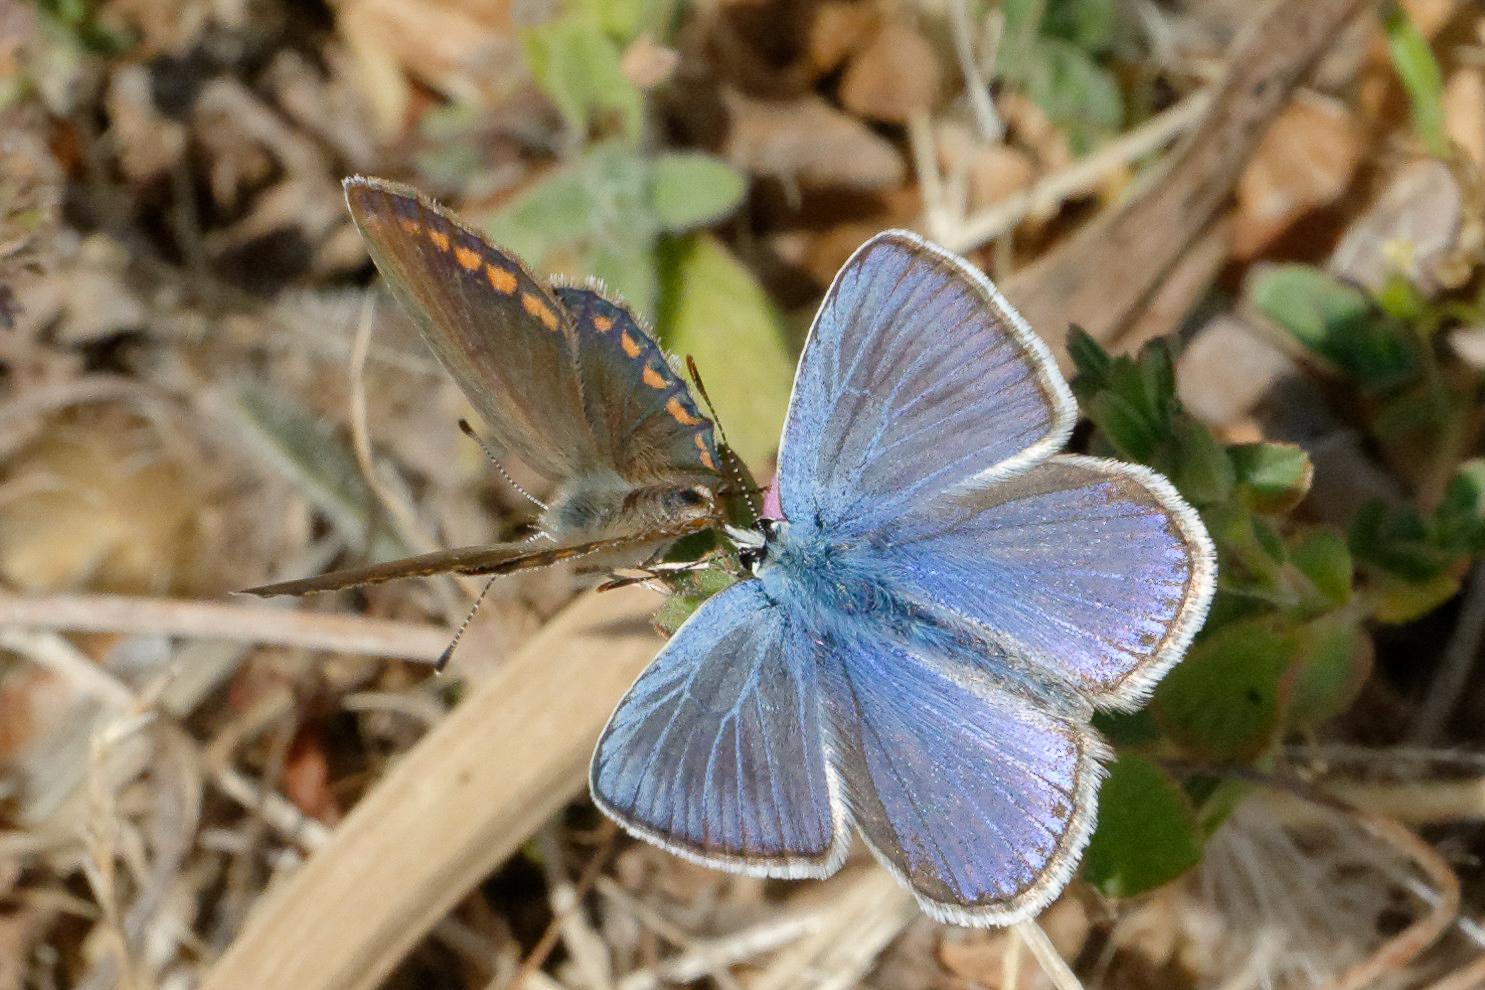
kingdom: Animalia
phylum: Arthropoda
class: Insecta
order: Lepidoptera
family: Lycaenidae
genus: Polyommatus
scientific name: Polyommatus celina
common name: Austaut's blue
